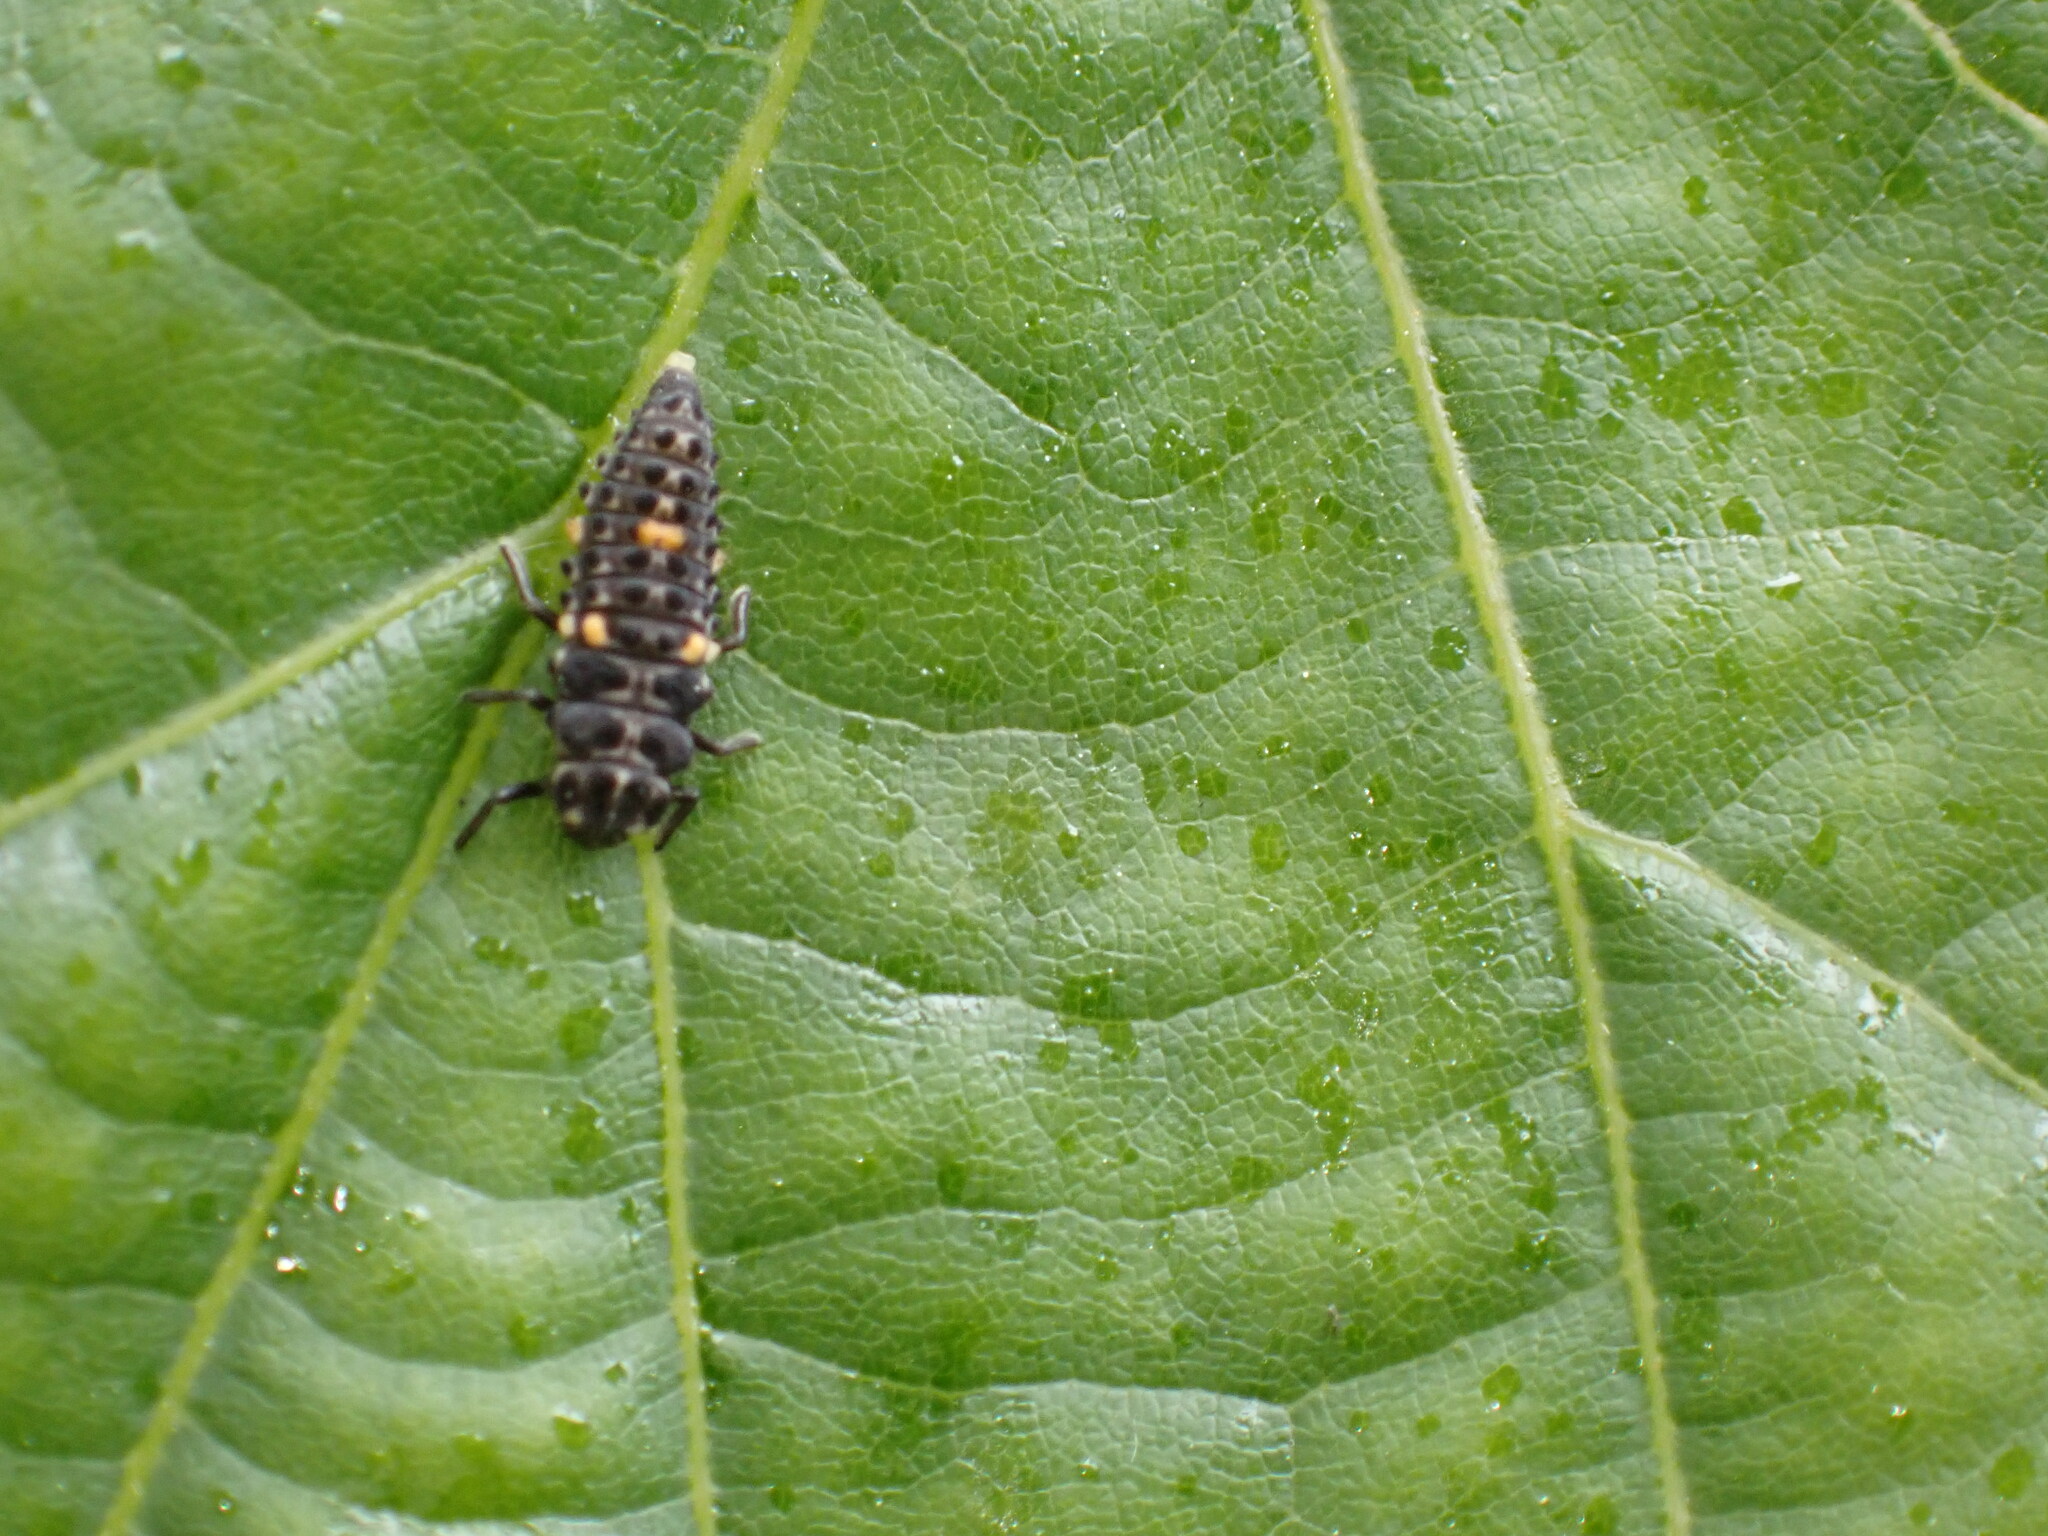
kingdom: Animalia
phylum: Arthropoda
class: Insecta
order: Coleoptera
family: Coccinellidae
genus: Adalia
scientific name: Adalia bipunctata
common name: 2-spot ladybird
